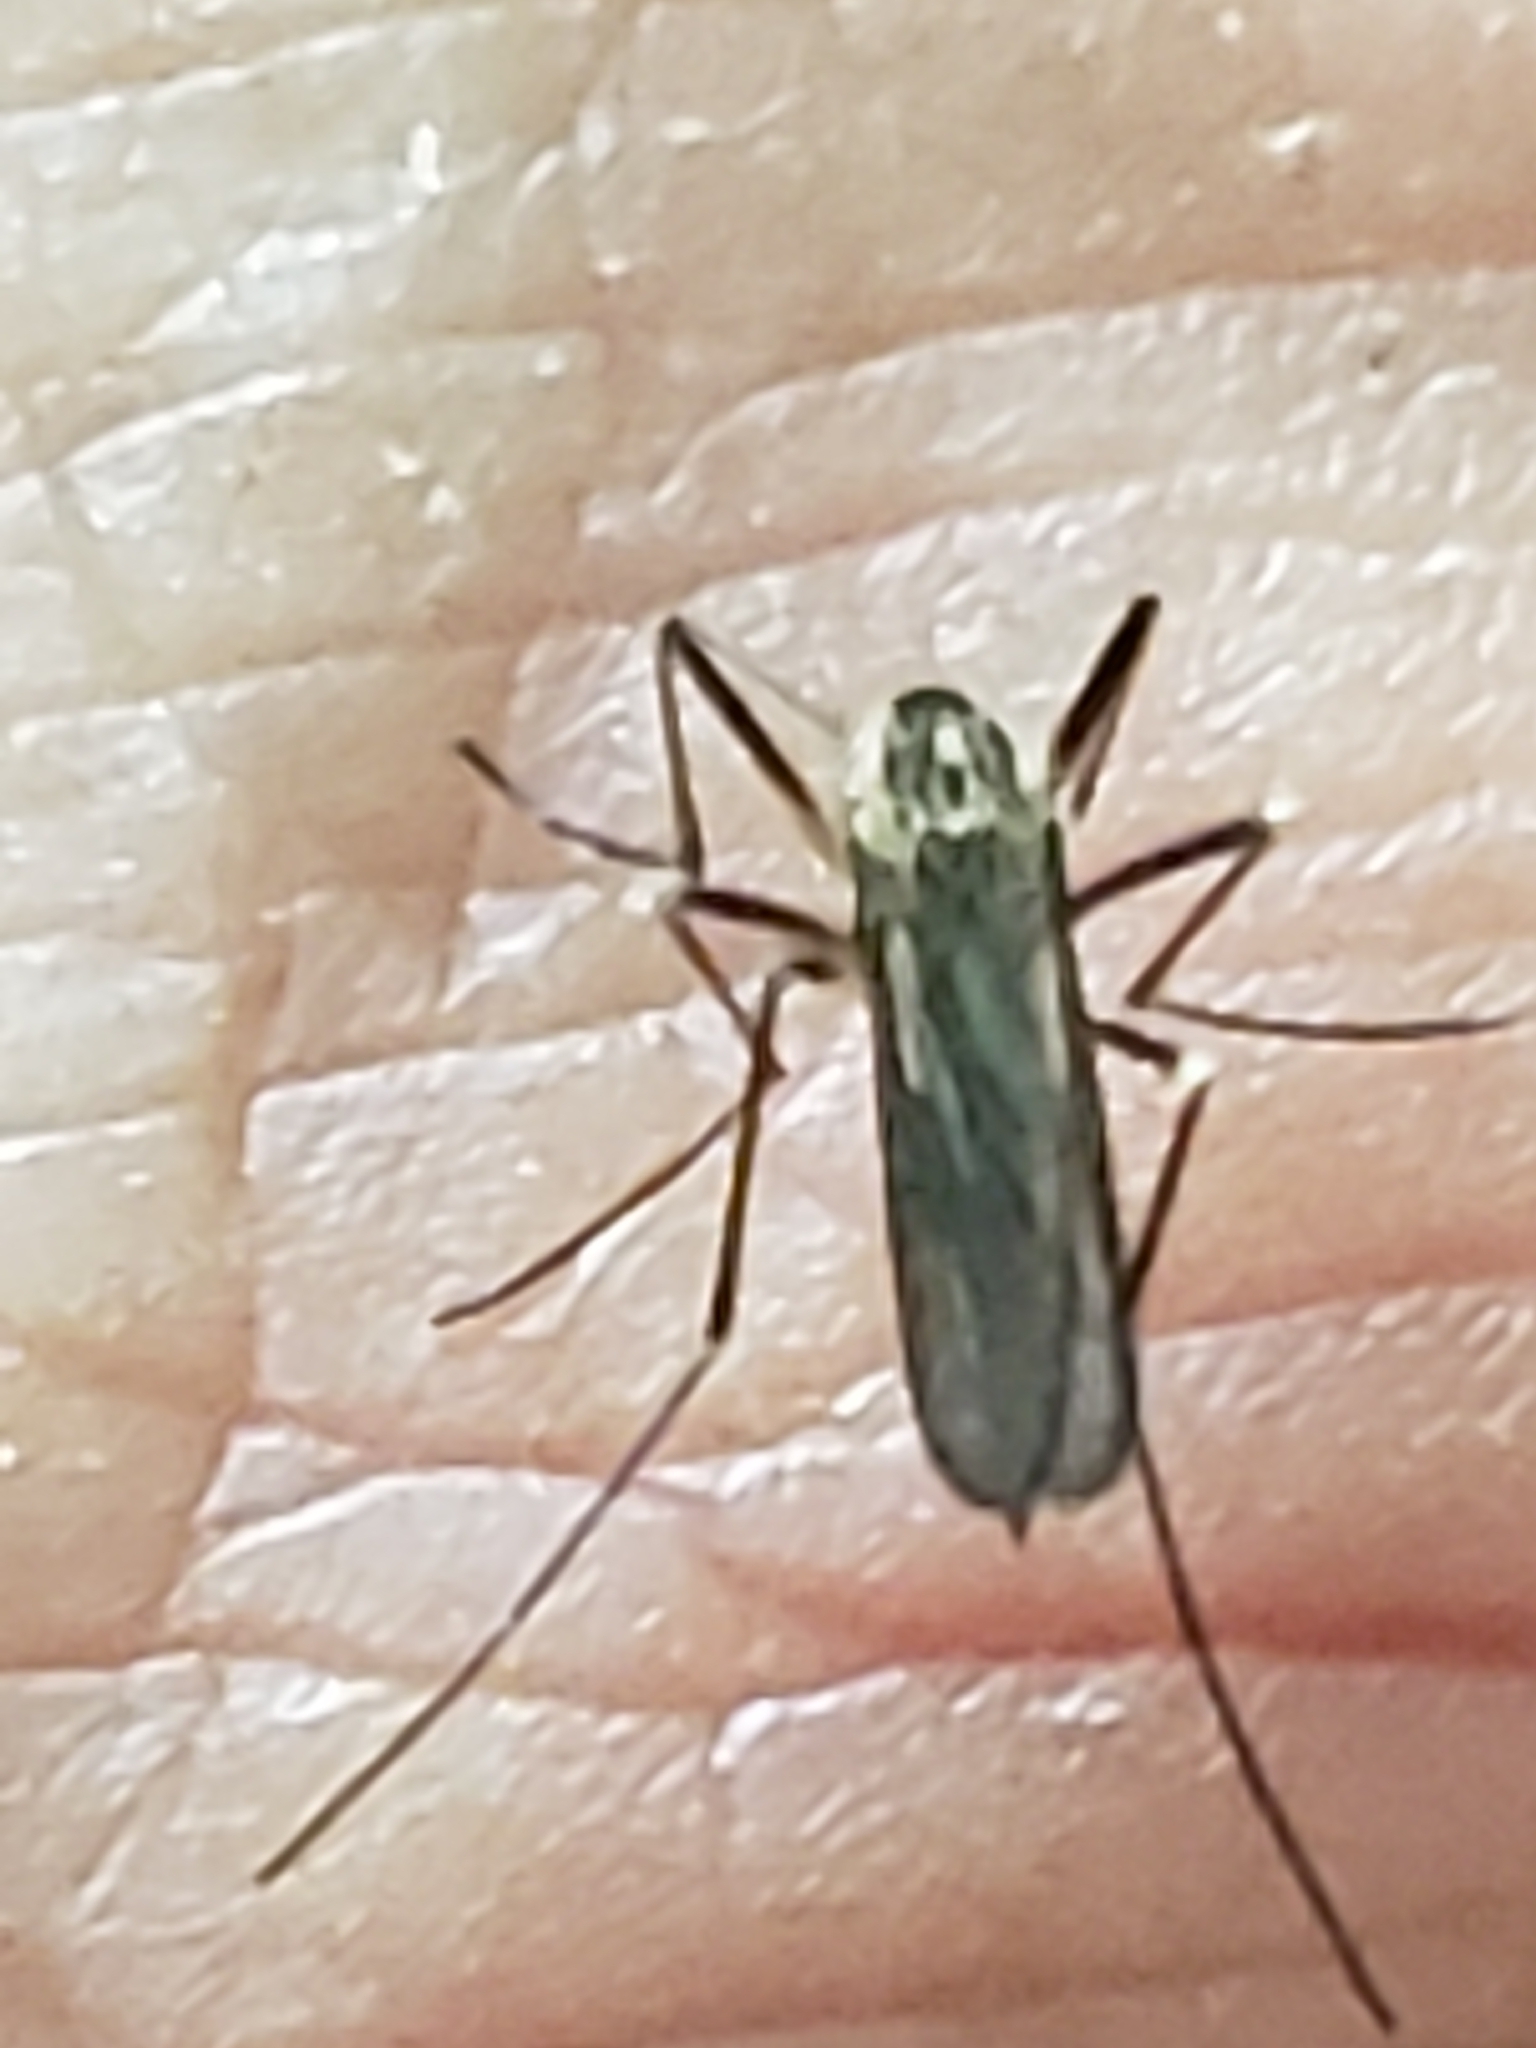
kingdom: Animalia
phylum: Arthropoda
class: Insecta
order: Diptera
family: Culicidae
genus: Aedes
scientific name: Aedes triseriatus
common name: Eastern treehole mosquito
